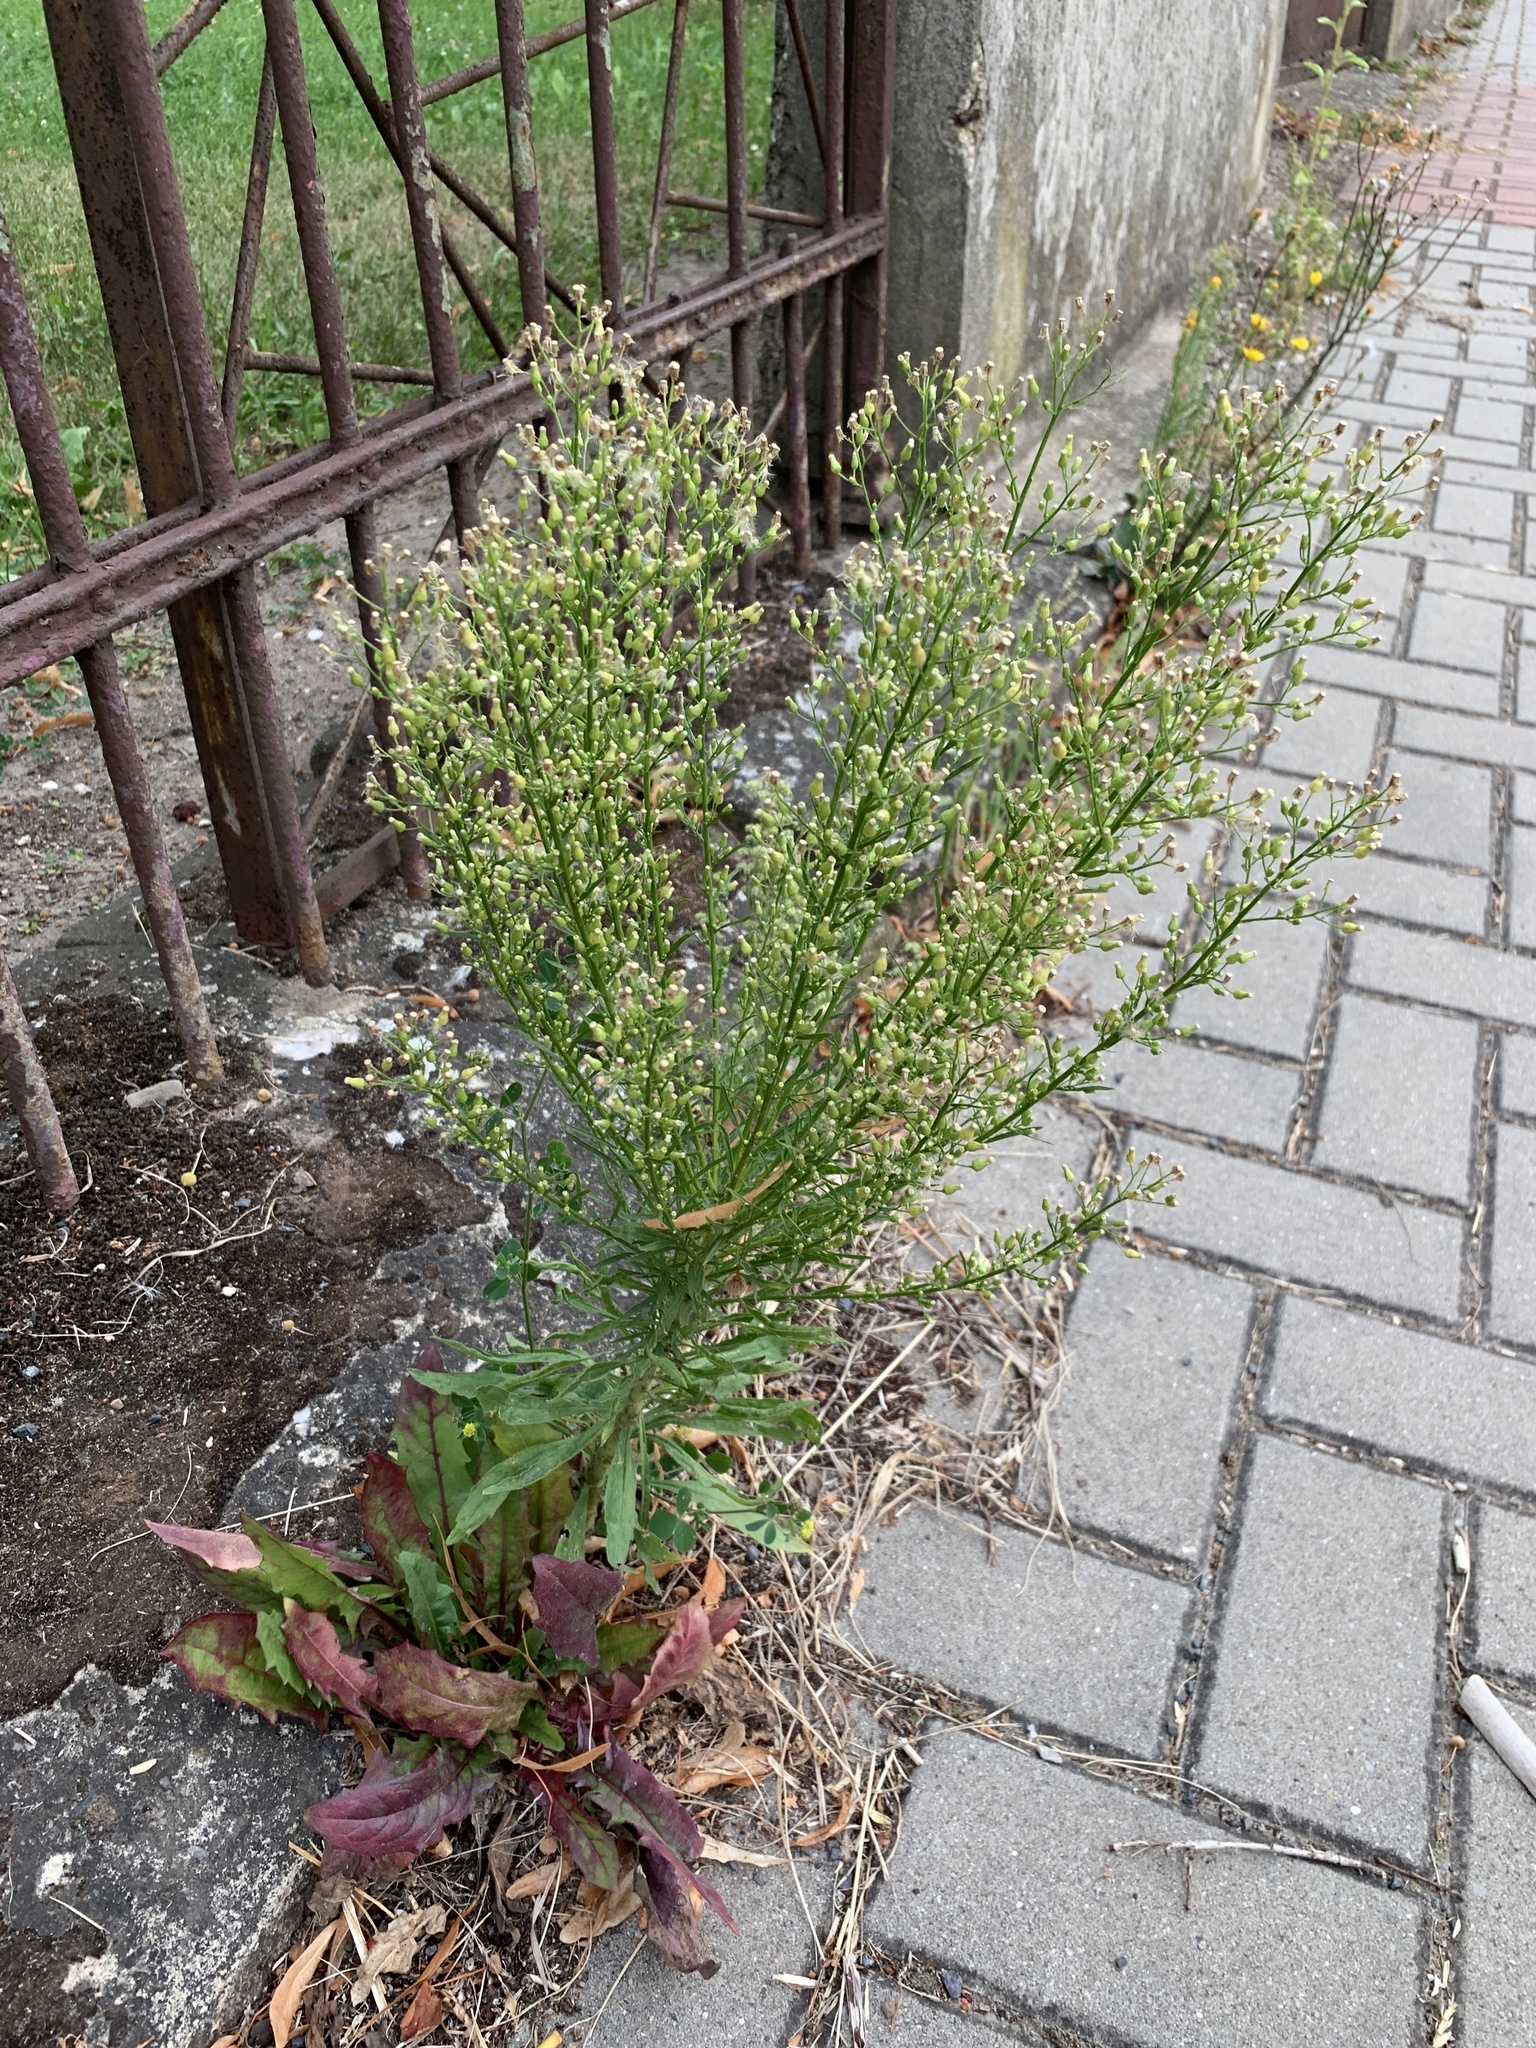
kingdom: Plantae
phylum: Tracheophyta
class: Magnoliopsida
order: Asterales
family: Asteraceae
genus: Erigeron
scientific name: Erigeron canadensis
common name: Canadian fleabane
